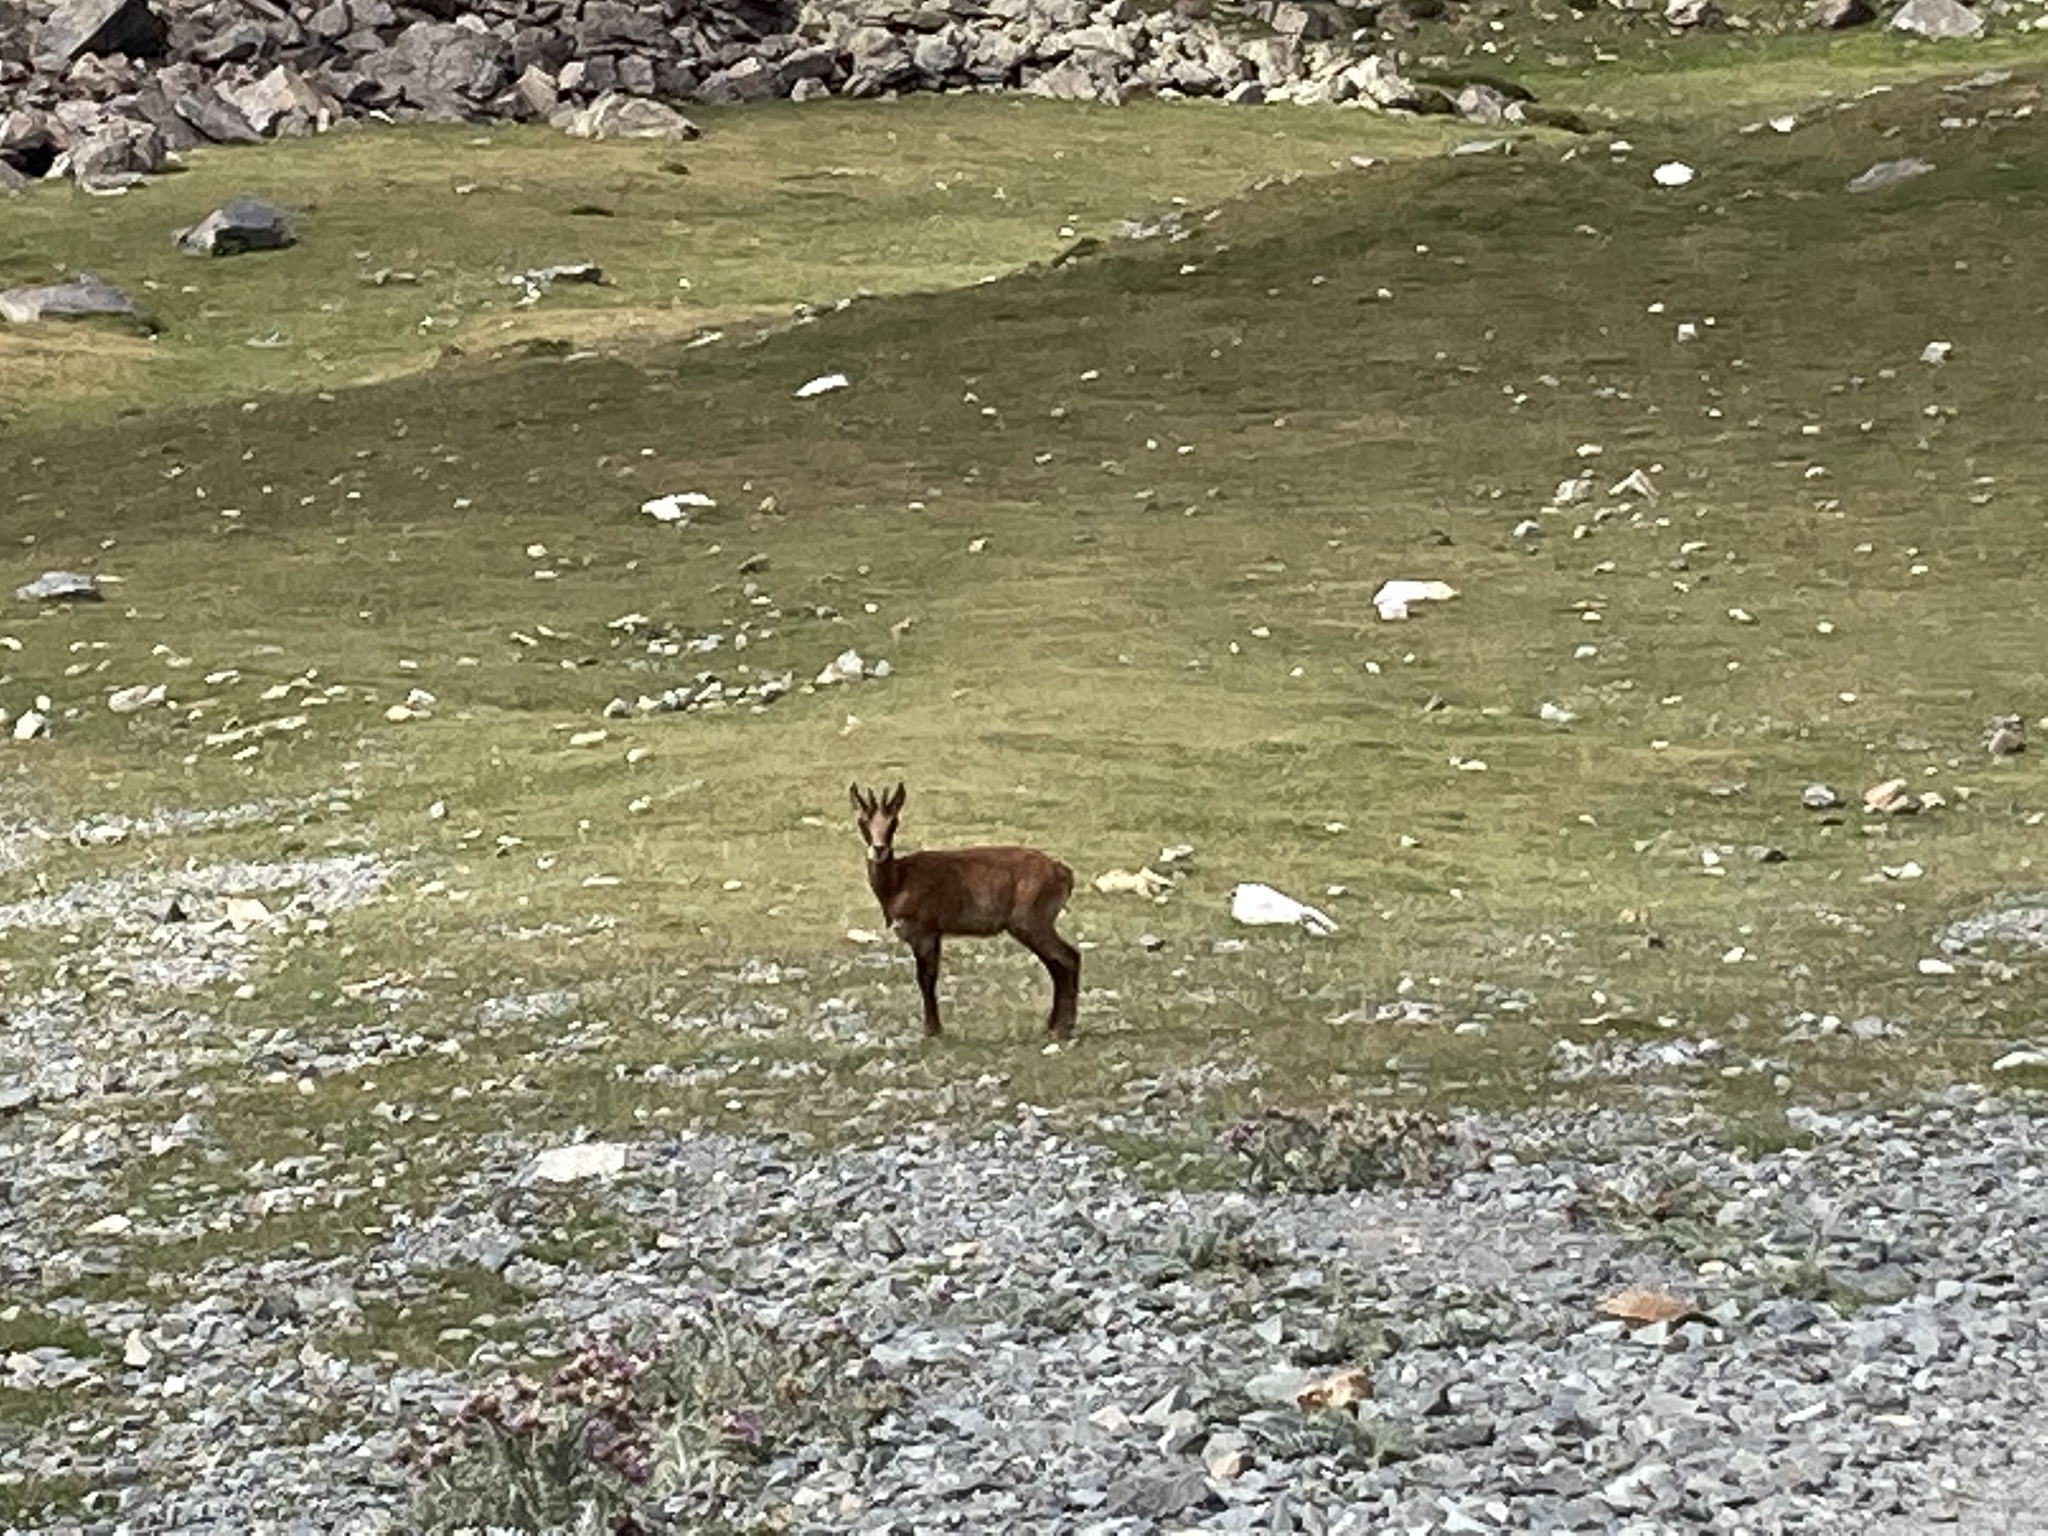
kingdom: Animalia
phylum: Chordata
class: Mammalia
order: Artiodactyla
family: Bovidae
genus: Rupicapra
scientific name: Rupicapra pyrenaica
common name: Pyrenean chamois
